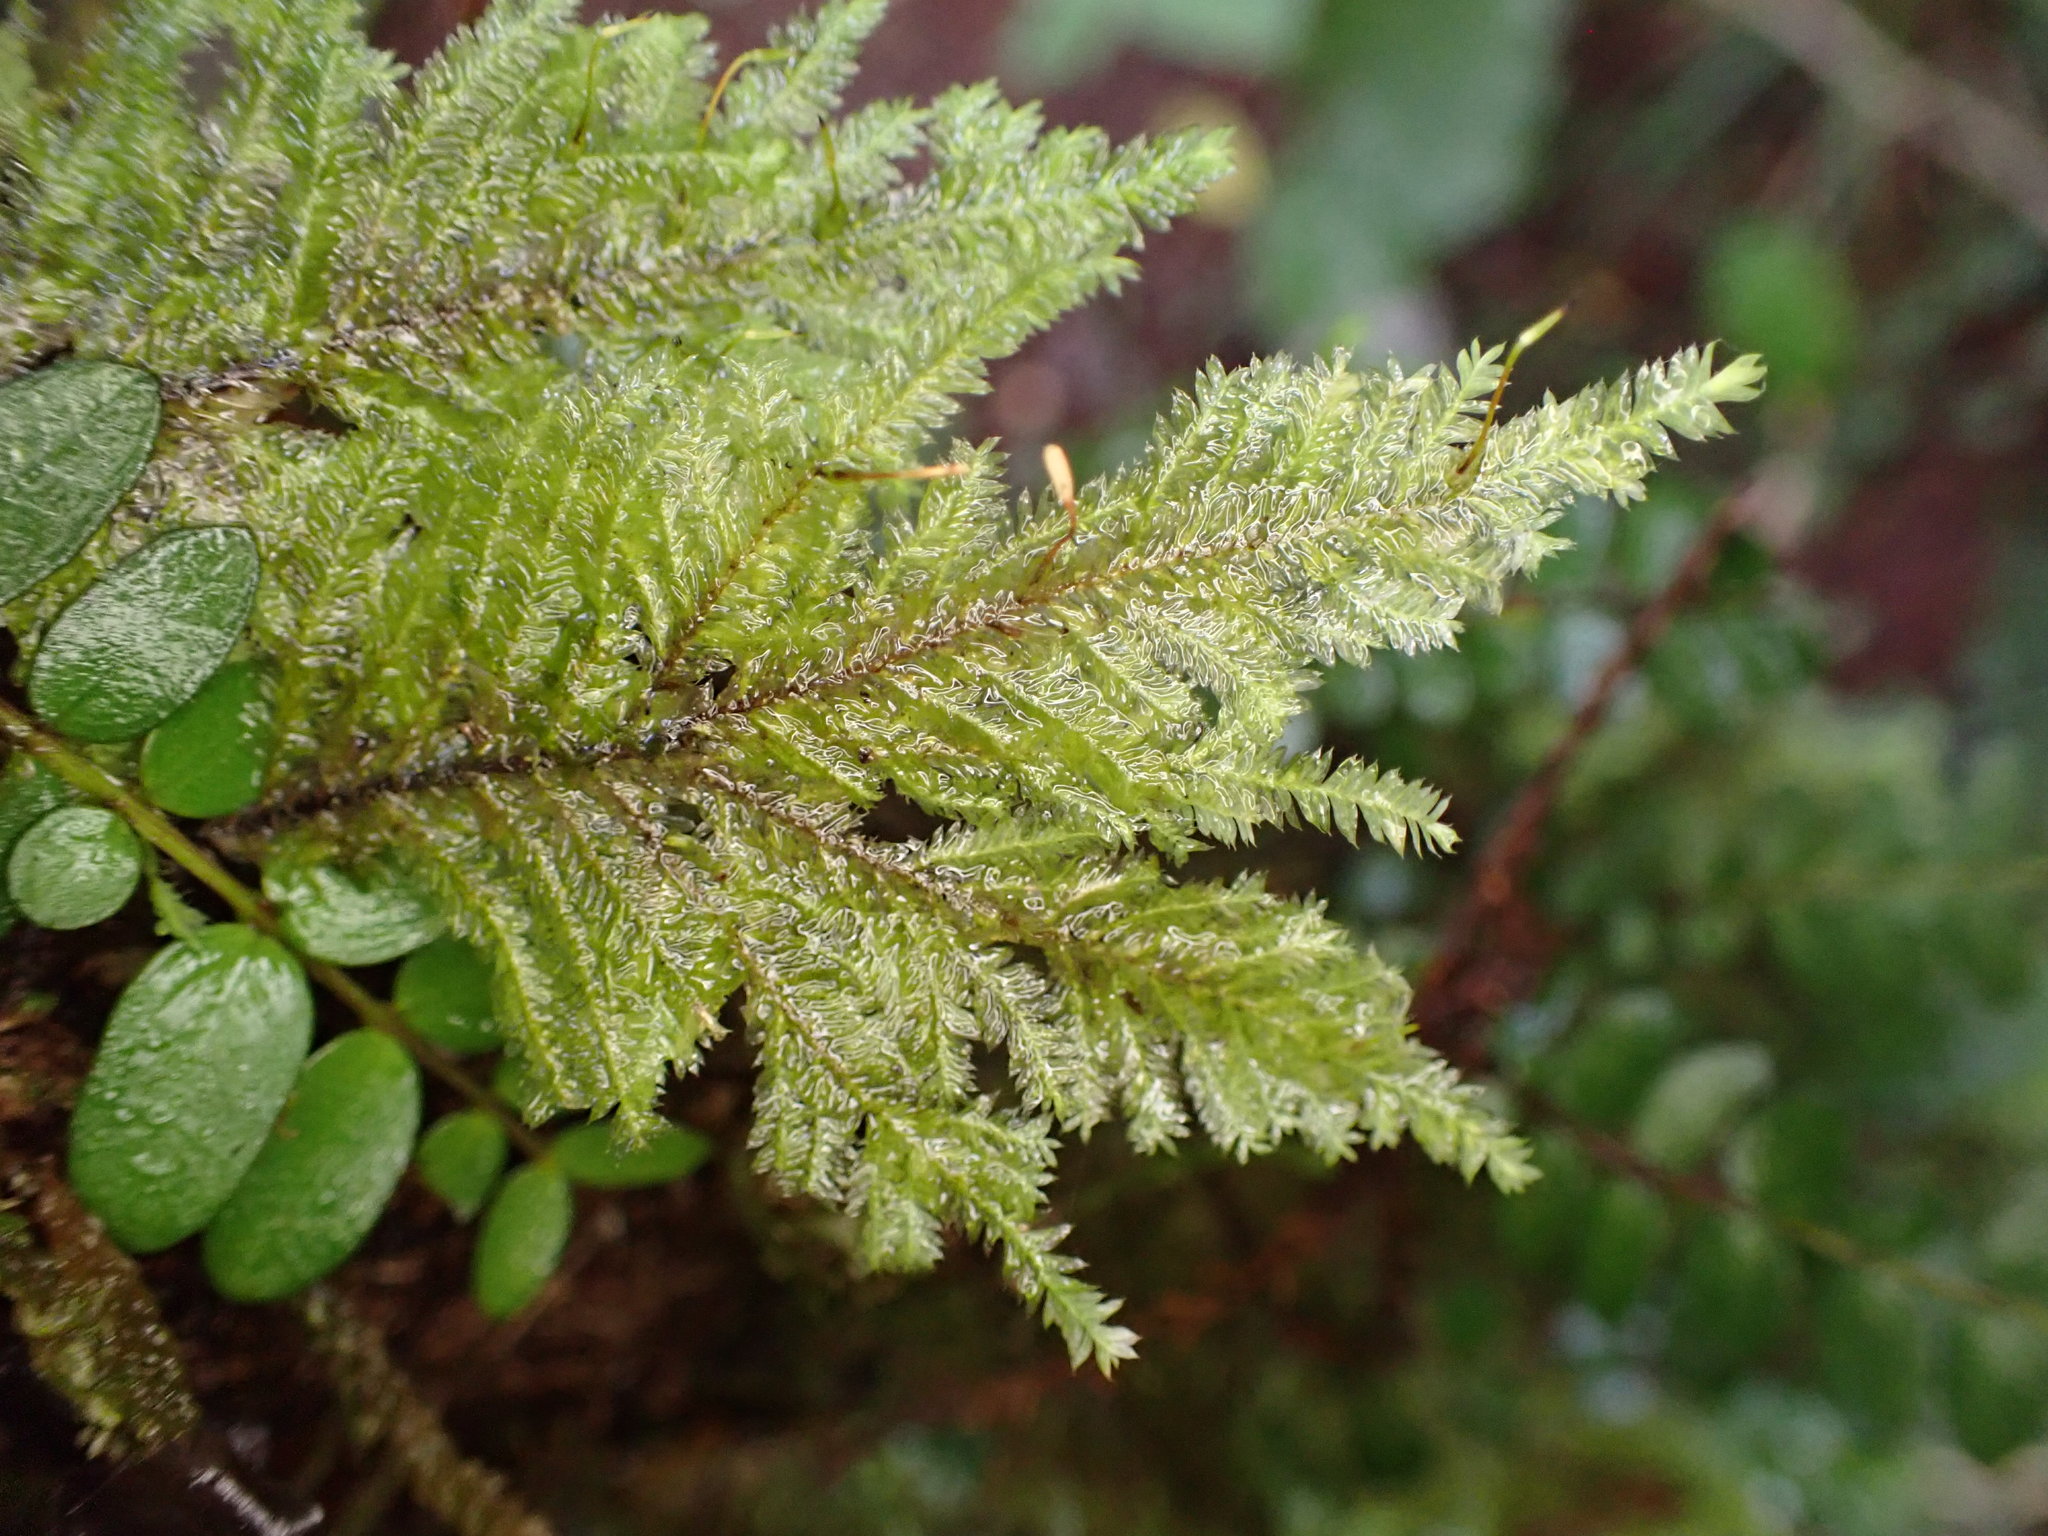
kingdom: Plantae
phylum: Bryophyta
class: Bryopsida
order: Hypopterygiales
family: Hypopterygiaceae
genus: Lopidium
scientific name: Lopidium concinnum
